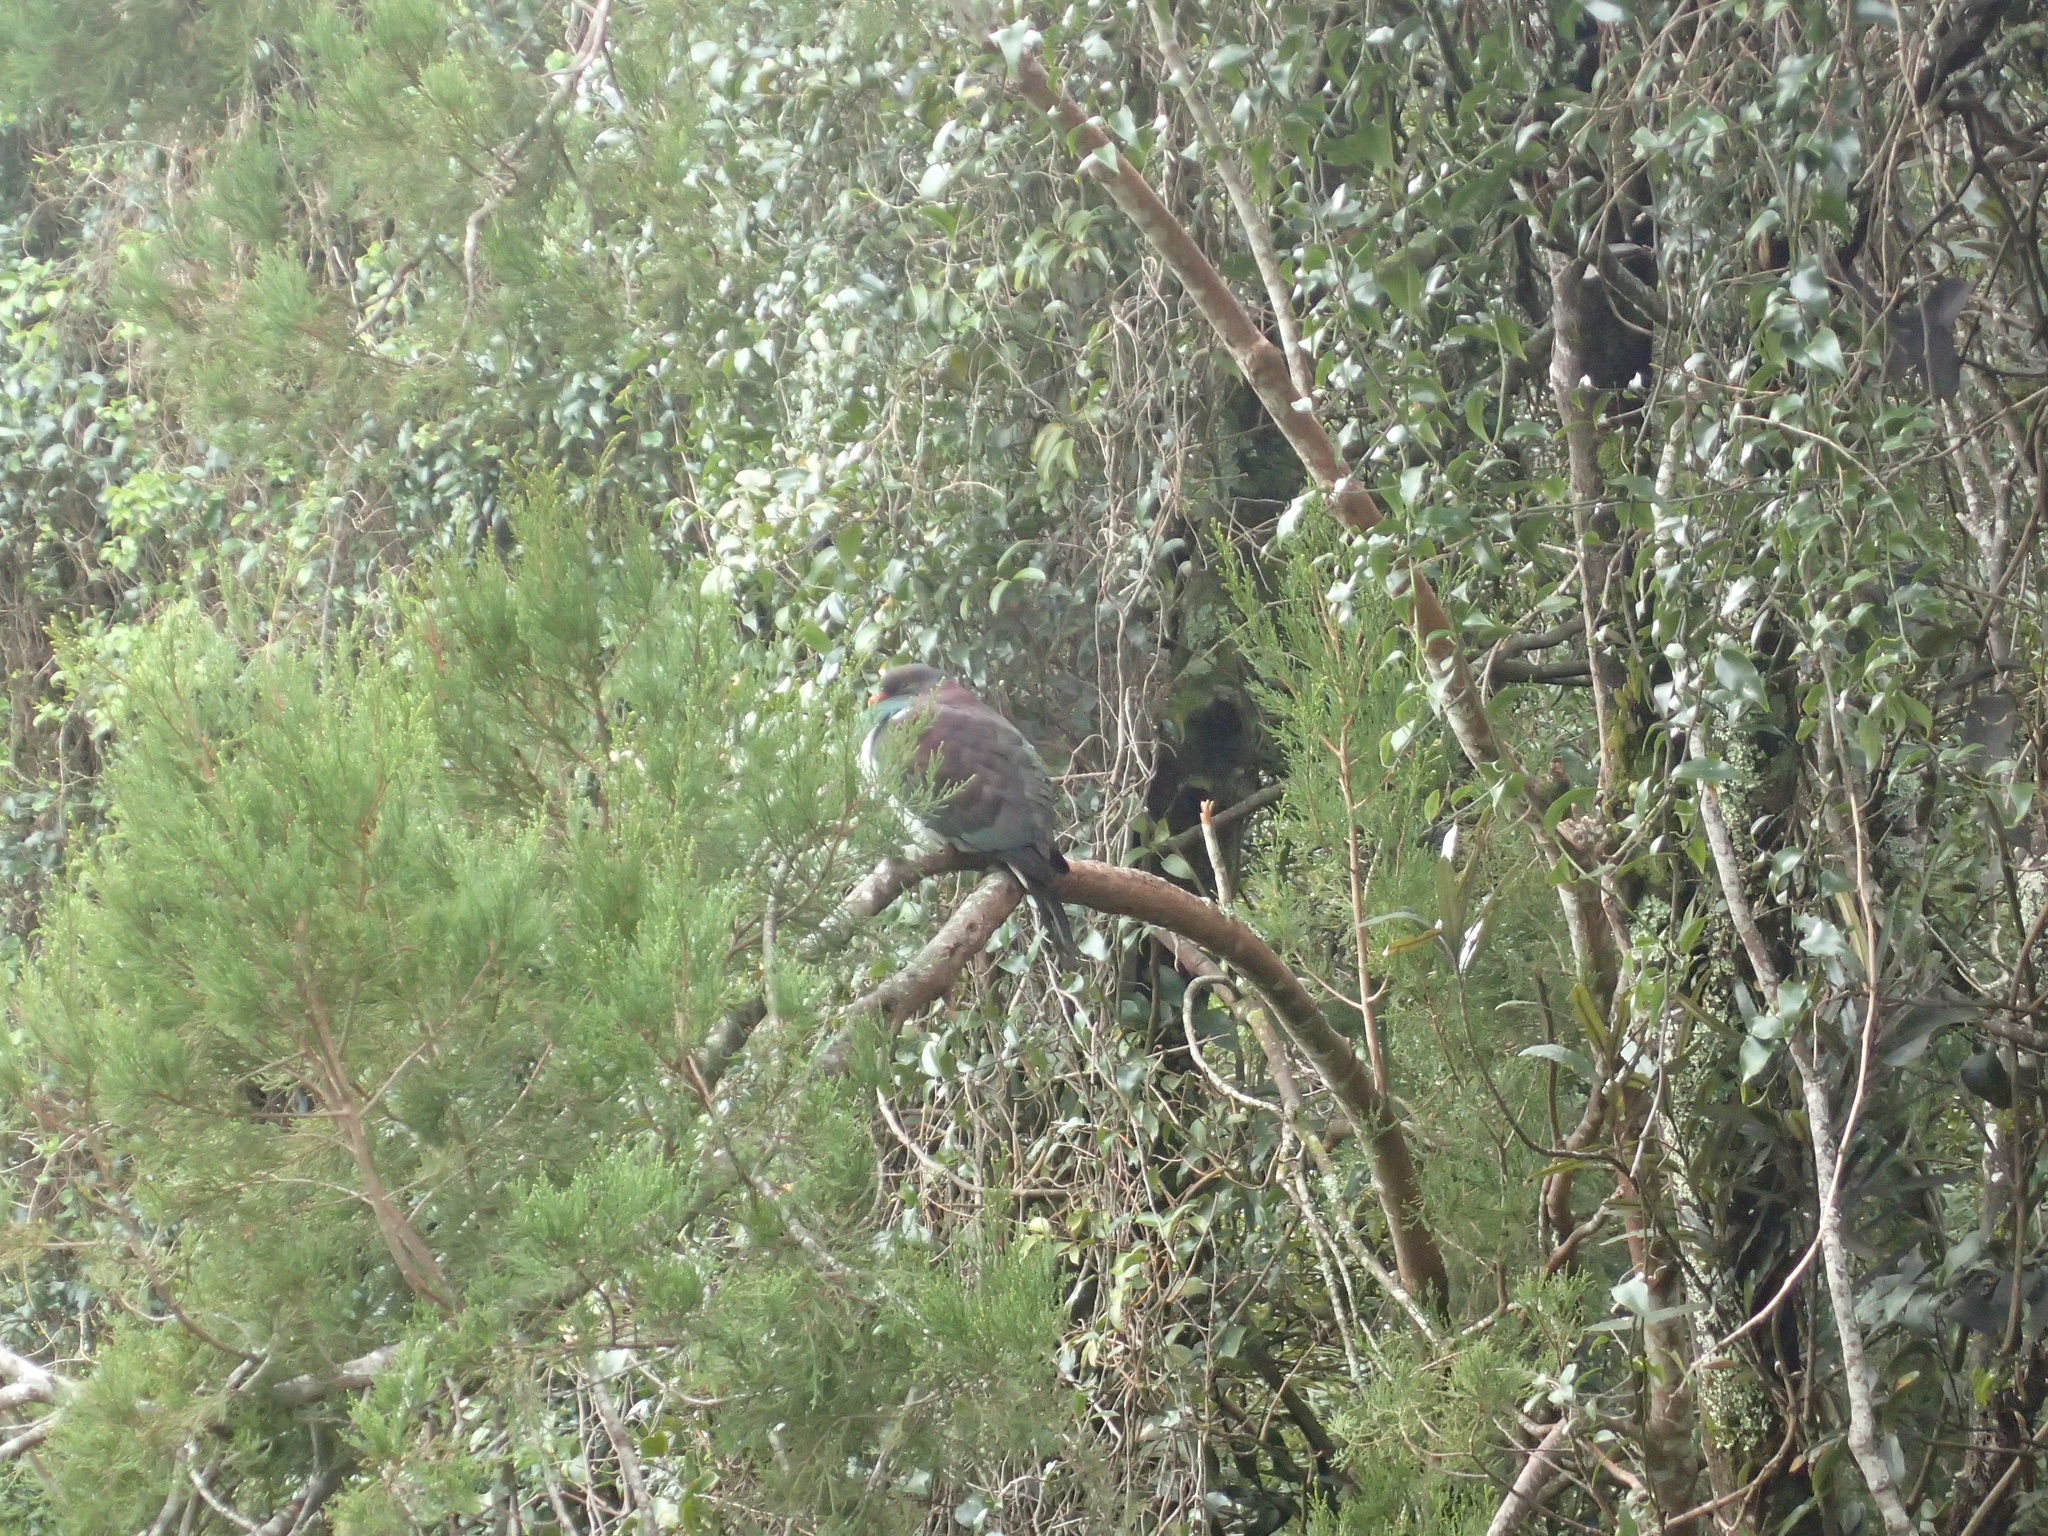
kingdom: Animalia
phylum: Chordata
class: Aves
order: Columbiformes
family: Columbidae
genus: Hemiphaga
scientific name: Hemiphaga novaeseelandiae
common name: New zealand pigeon
